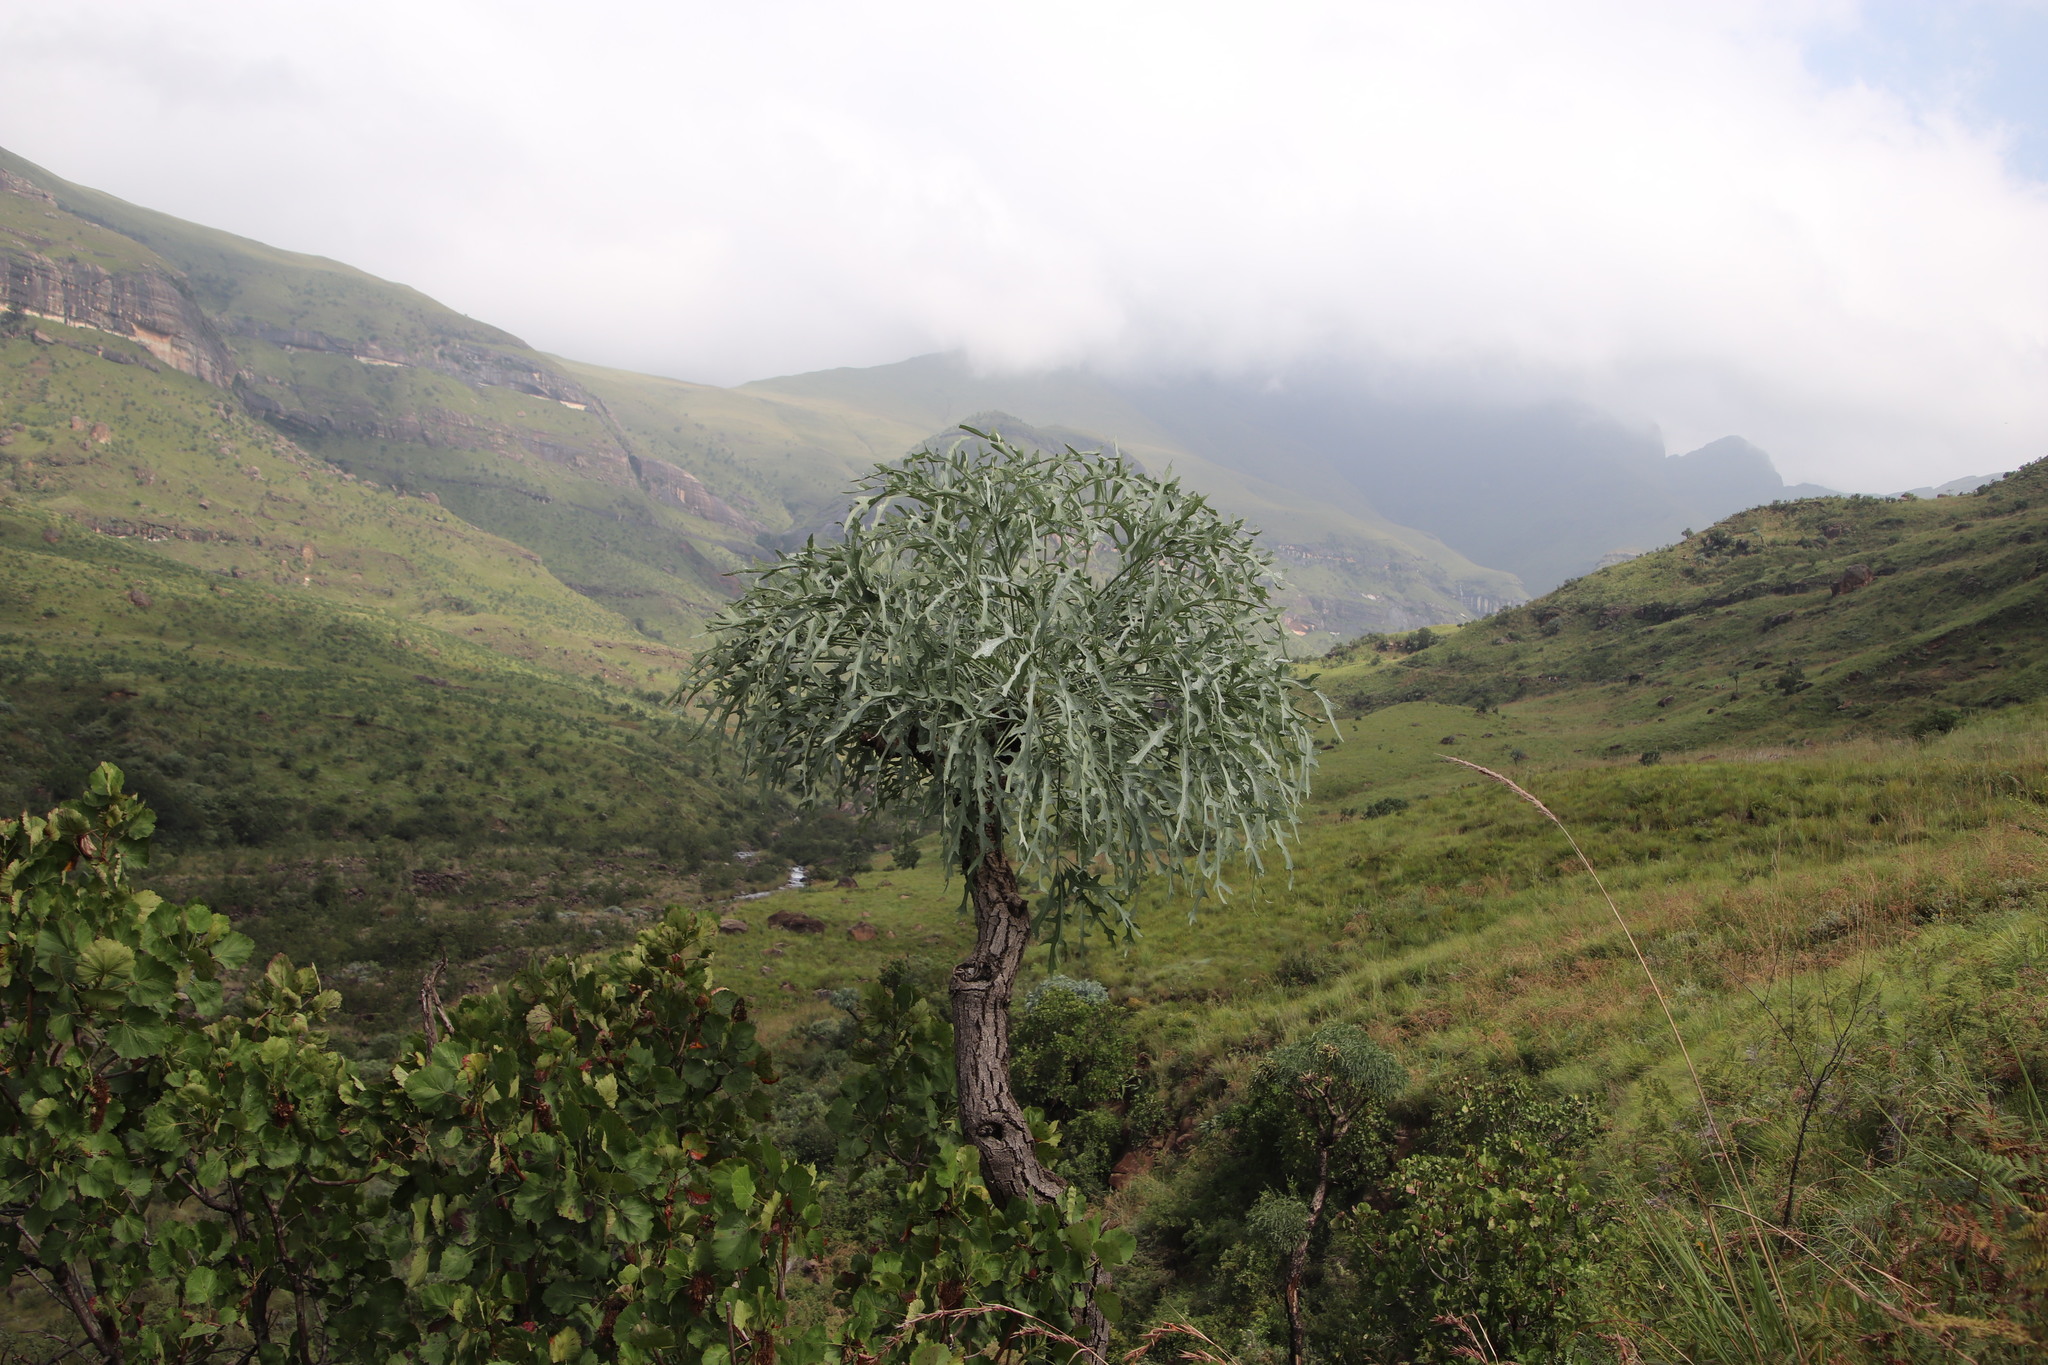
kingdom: Plantae
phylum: Tracheophyta
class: Magnoliopsida
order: Apiales
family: Araliaceae
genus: Cussonia
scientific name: Cussonia paniculata
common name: Cabbagetree
